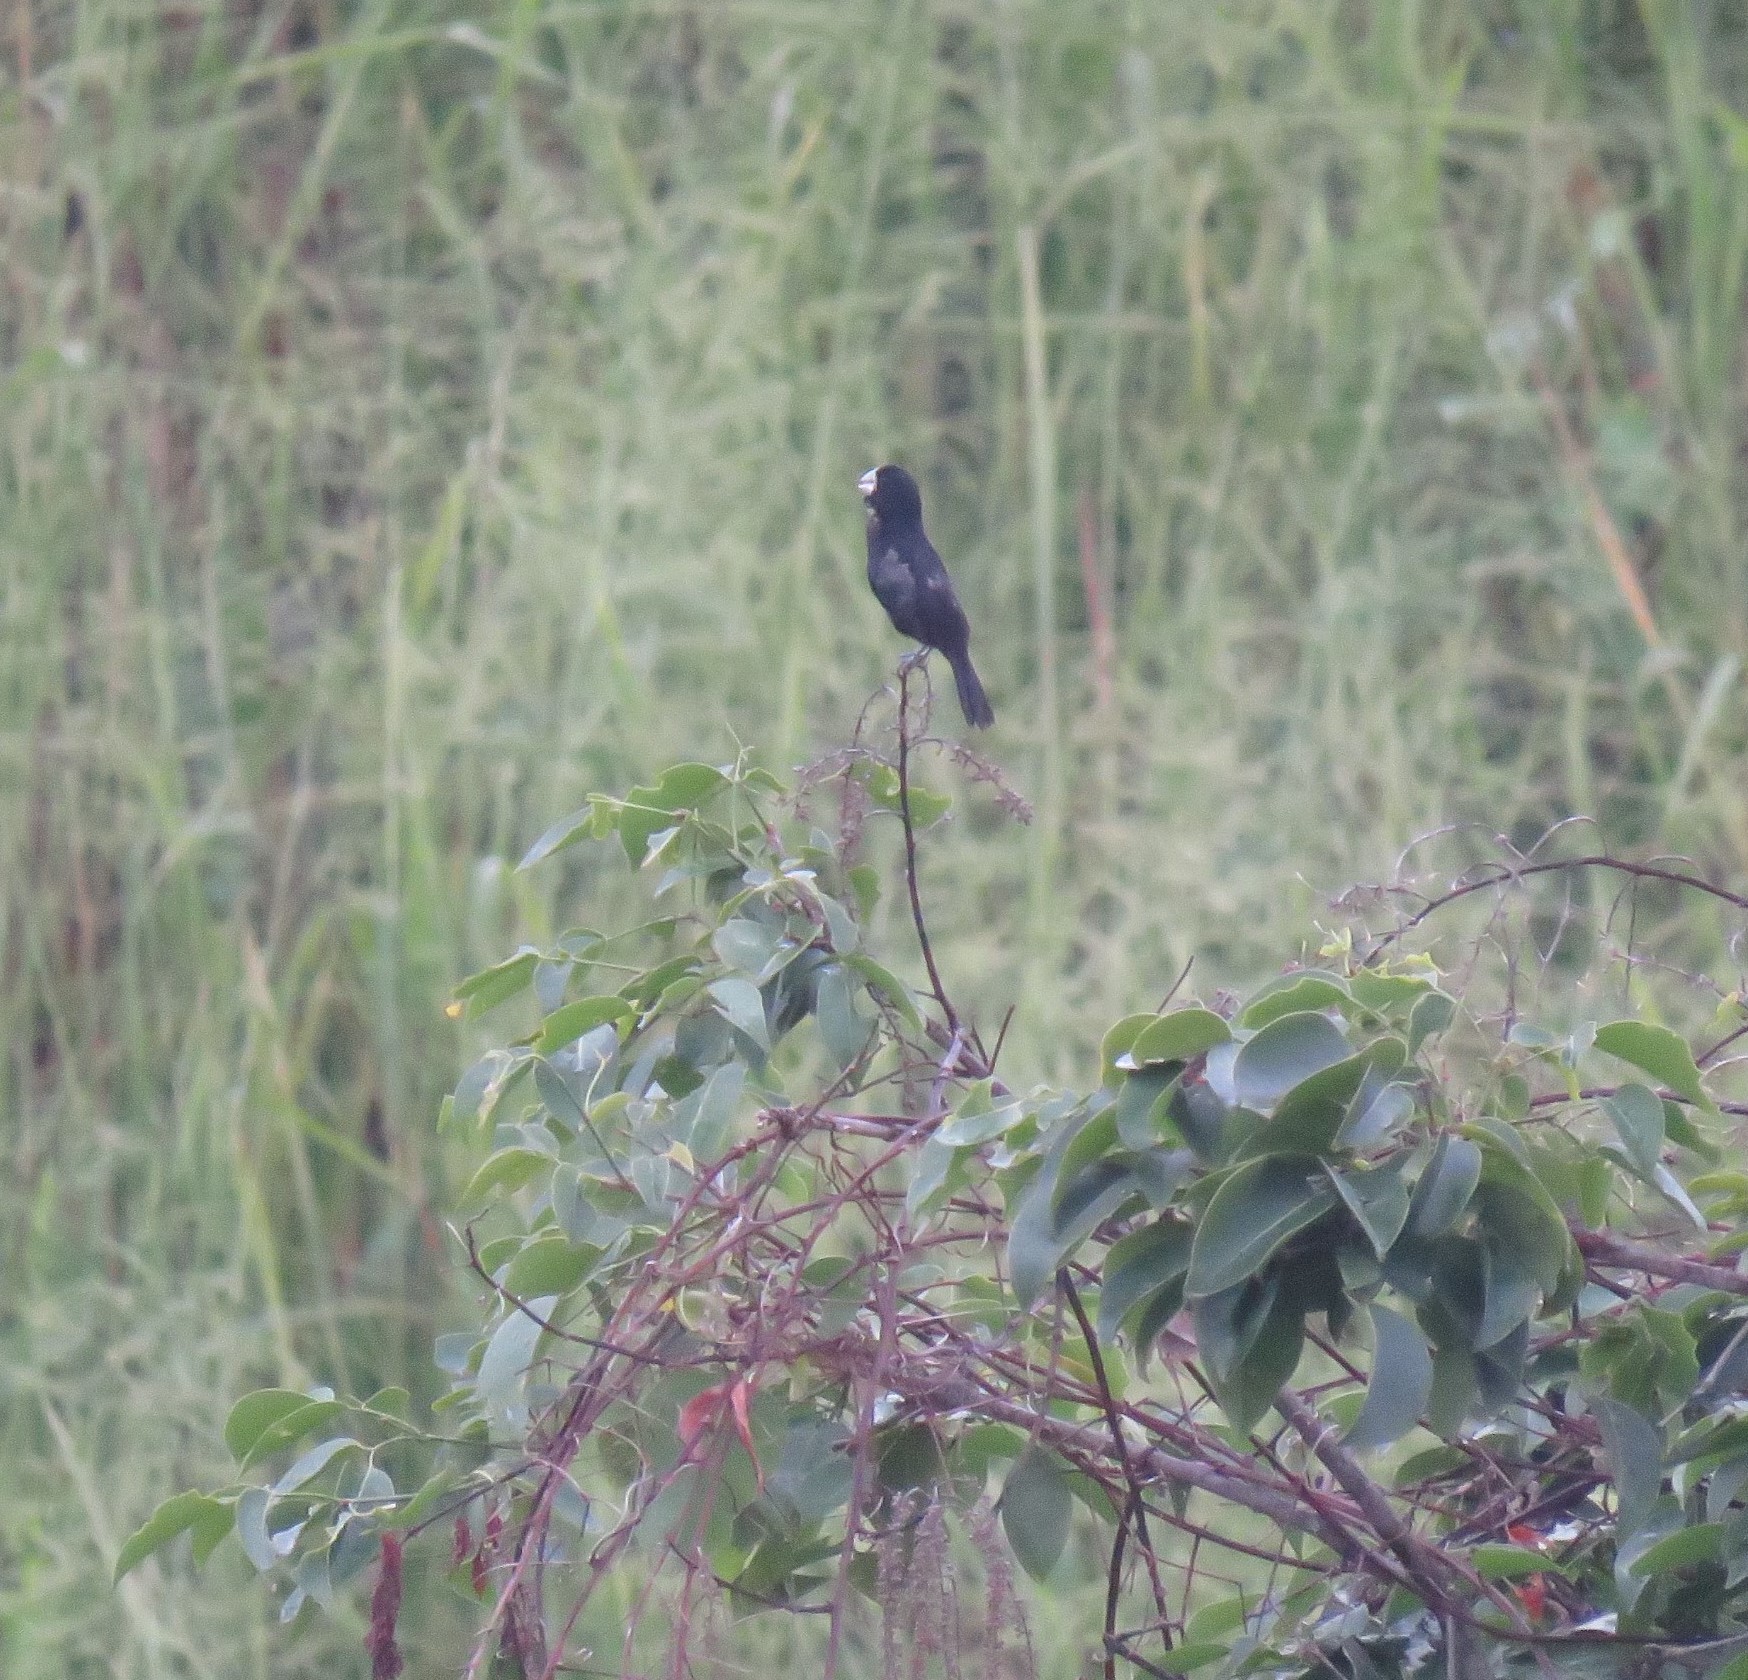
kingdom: Animalia
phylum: Chordata
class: Aves
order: Passeriformes
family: Thraupidae
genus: Sporophila
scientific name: Sporophila crassirostris
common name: Large-billed seed-finch
